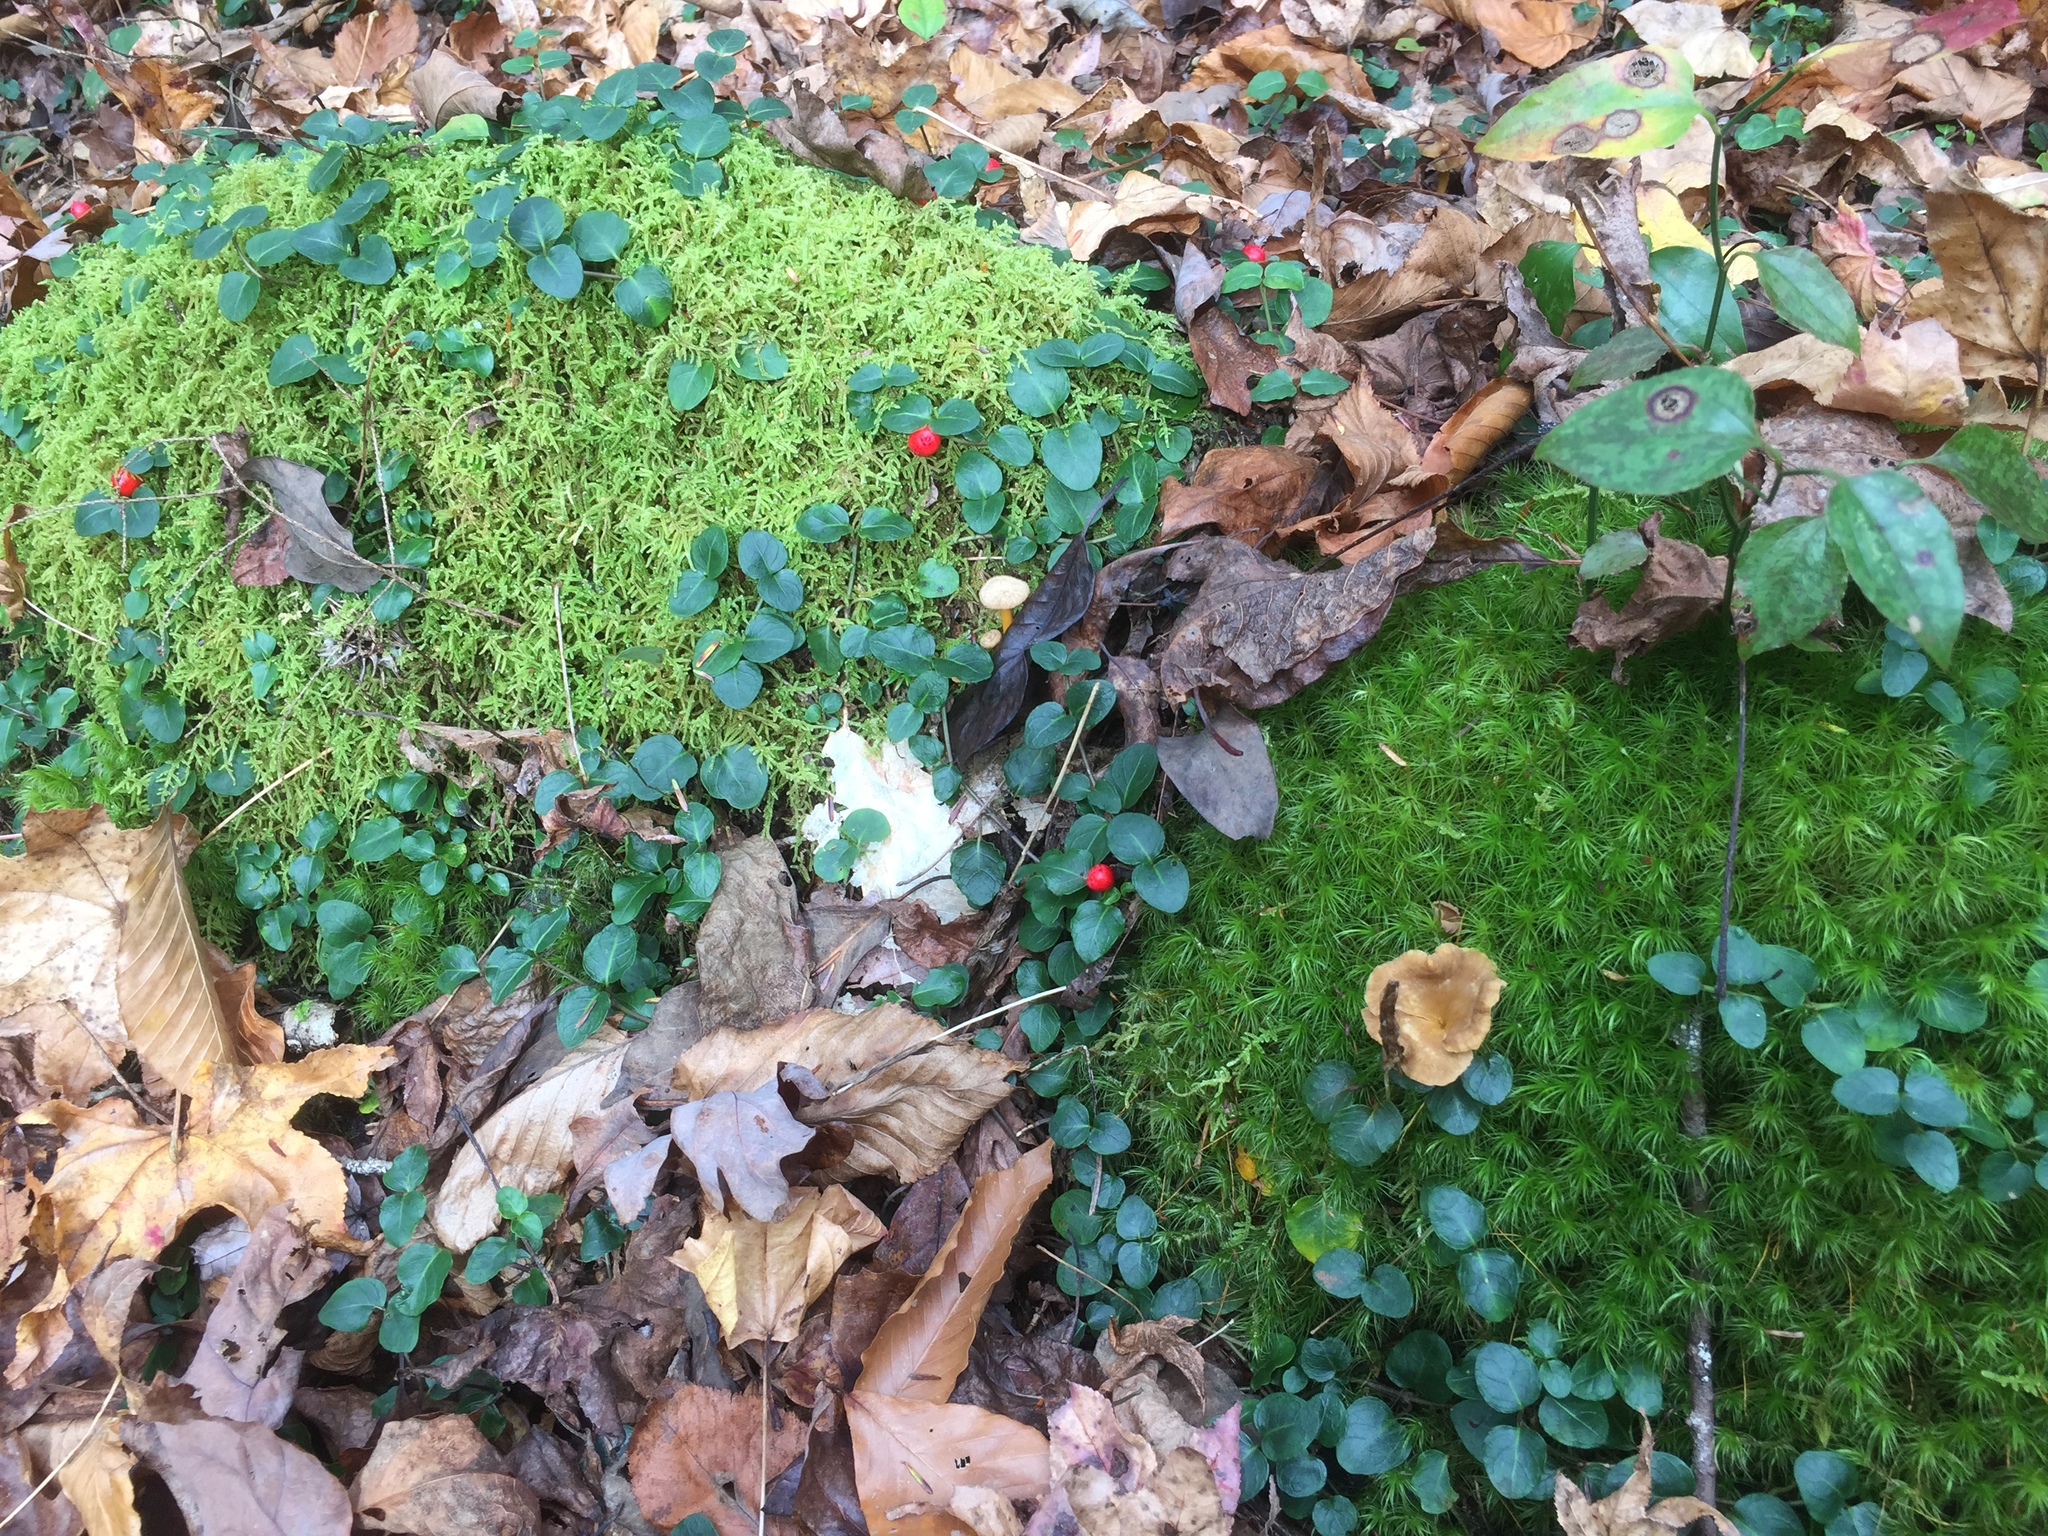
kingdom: Plantae
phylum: Tracheophyta
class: Magnoliopsida
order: Gentianales
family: Rubiaceae
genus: Mitchella
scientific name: Mitchella repens
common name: Partridge-berry
